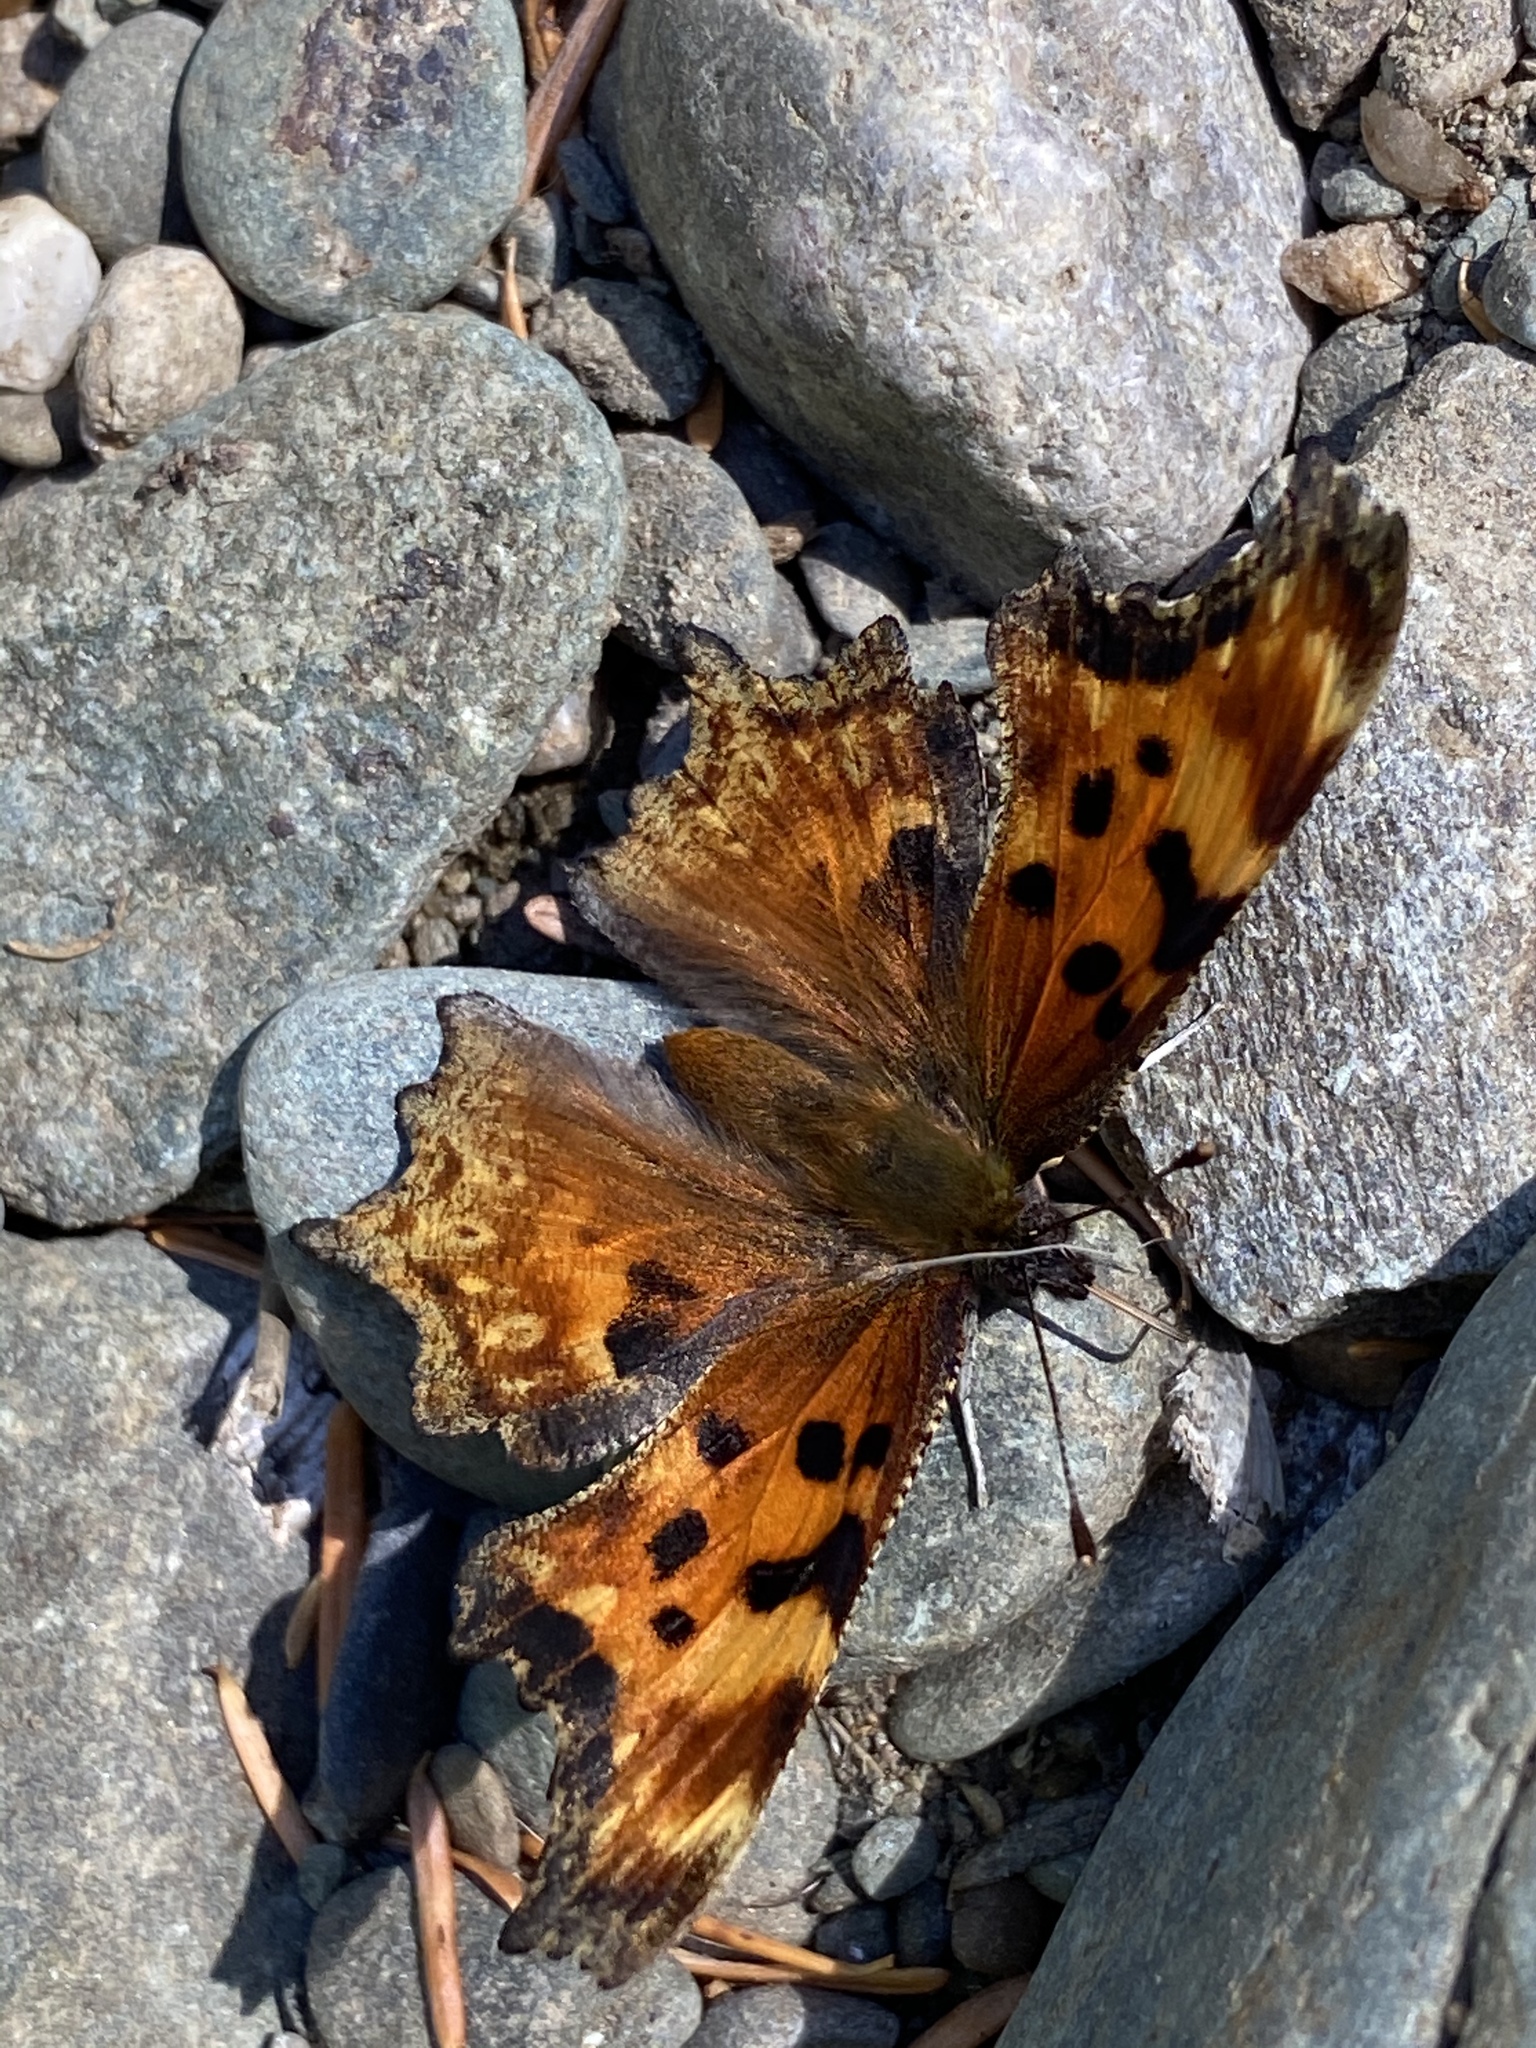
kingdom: Animalia
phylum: Arthropoda
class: Insecta
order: Lepidoptera
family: Nymphalidae
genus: Polygonia
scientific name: Polygonia gracilis
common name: Hoary comma
